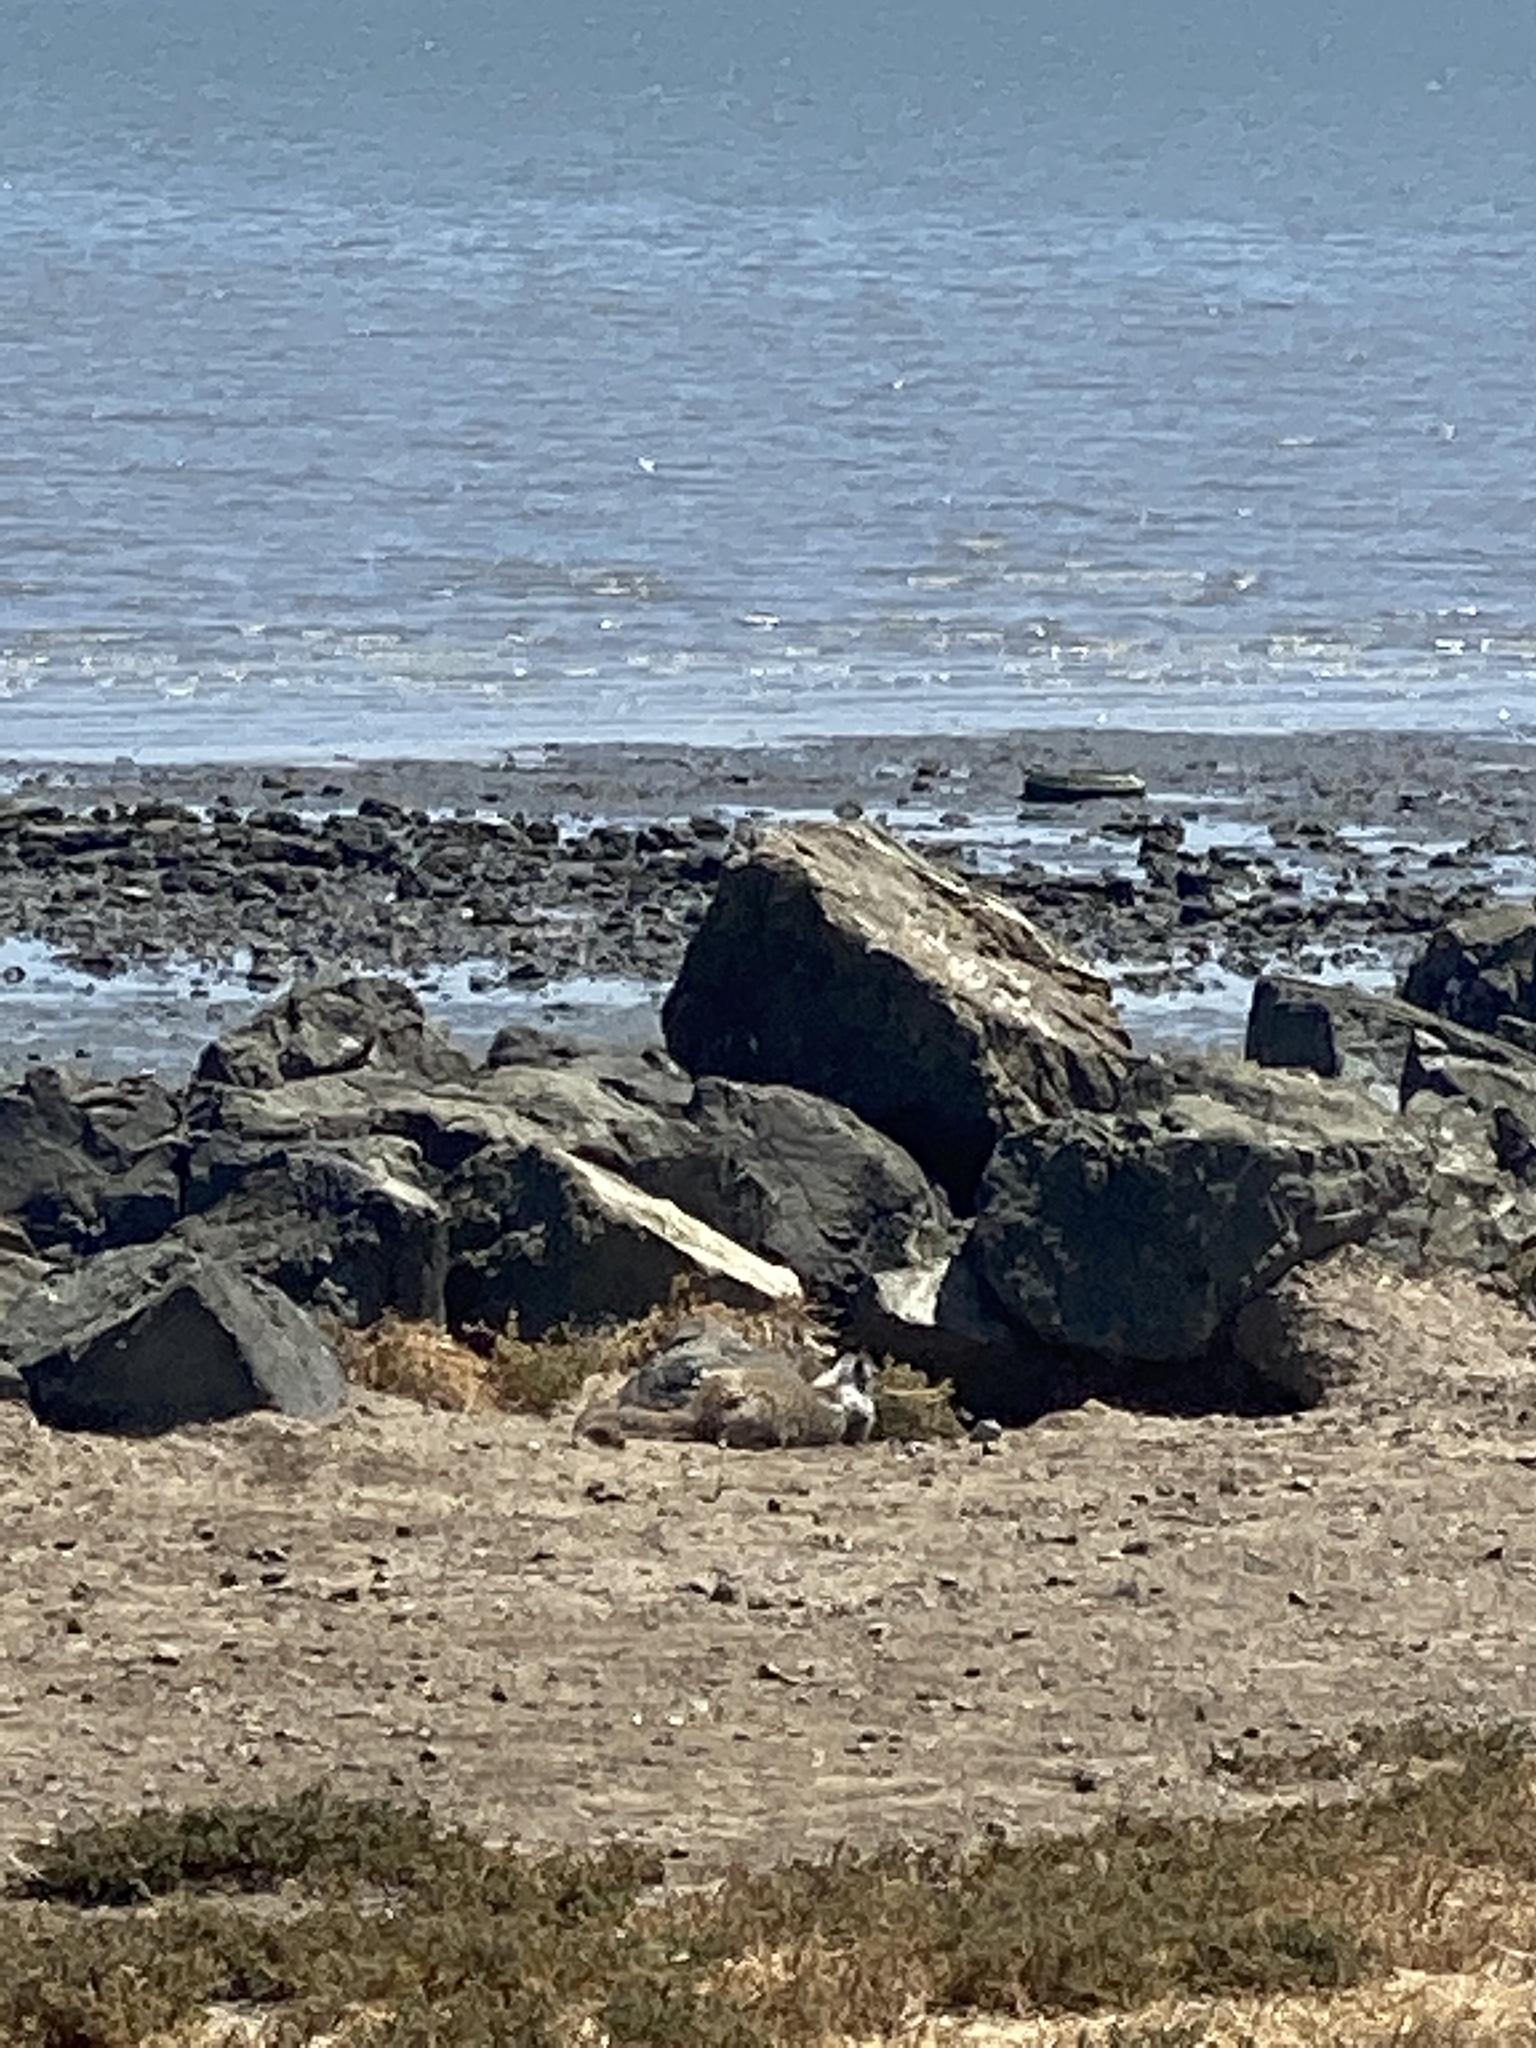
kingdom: Animalia
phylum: Chordata
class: Mammalia
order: Rodentia
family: Sciuridae
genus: Otospermophilus
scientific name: Otospermophilus beecheyi
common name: California ground squirrel
